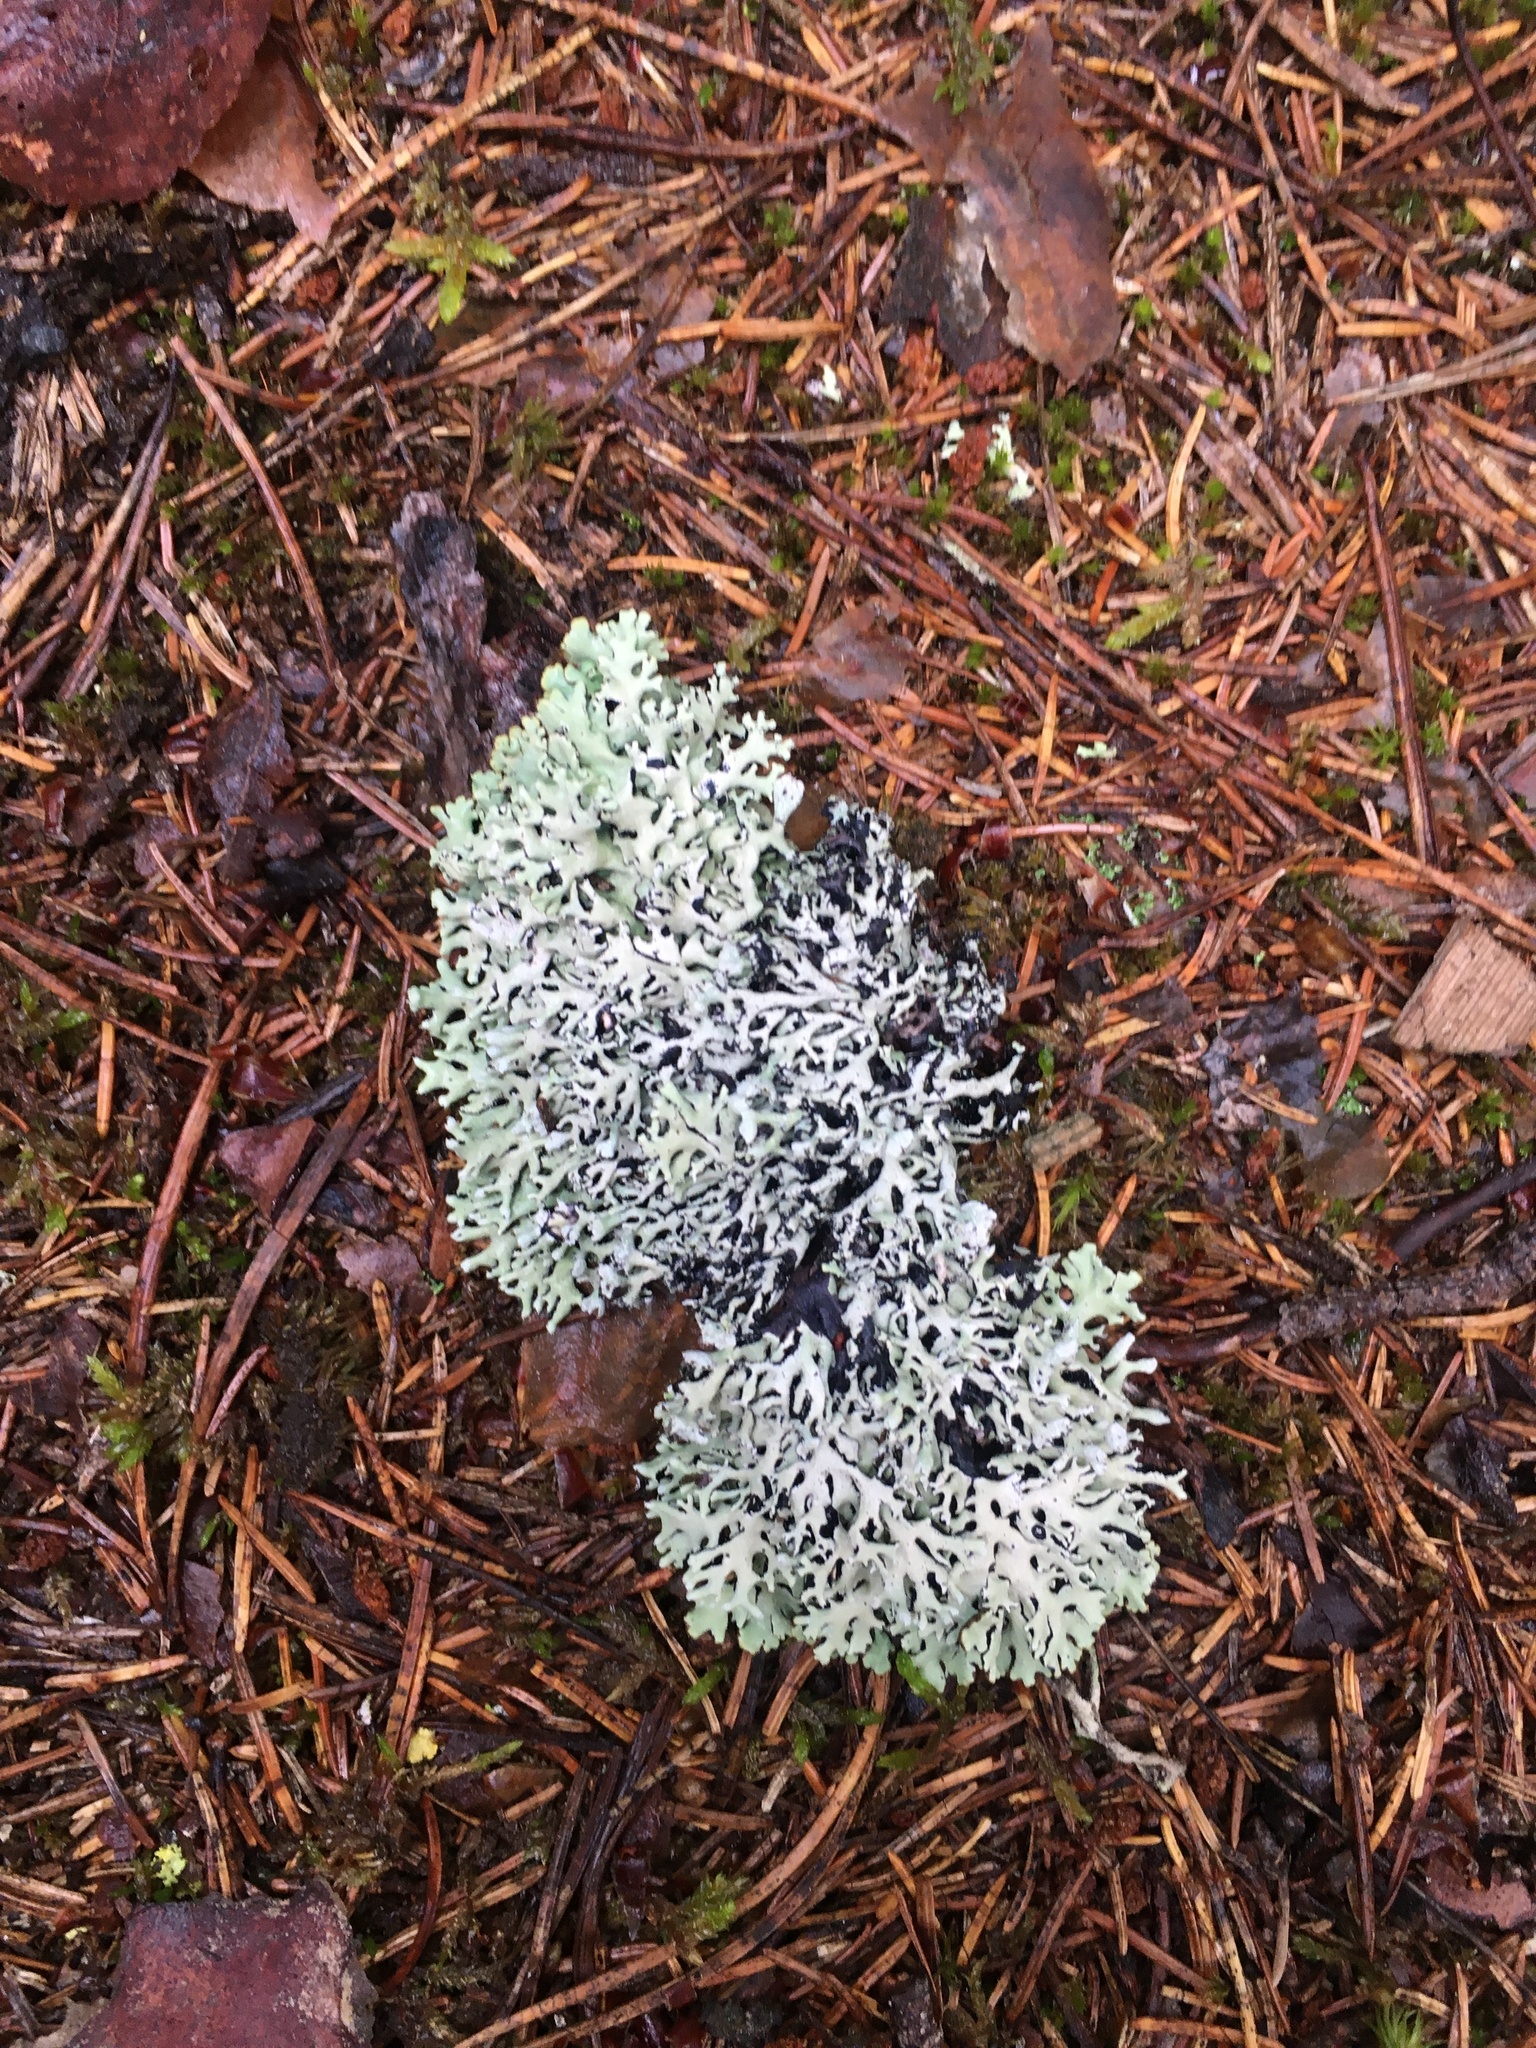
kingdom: Fungi
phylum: Ascomycota
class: Lecanoromycetes
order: Lecanorales
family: Parmeliaceae
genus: Hypogymnia
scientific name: Hypogymnia physodes
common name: Dark crottle
